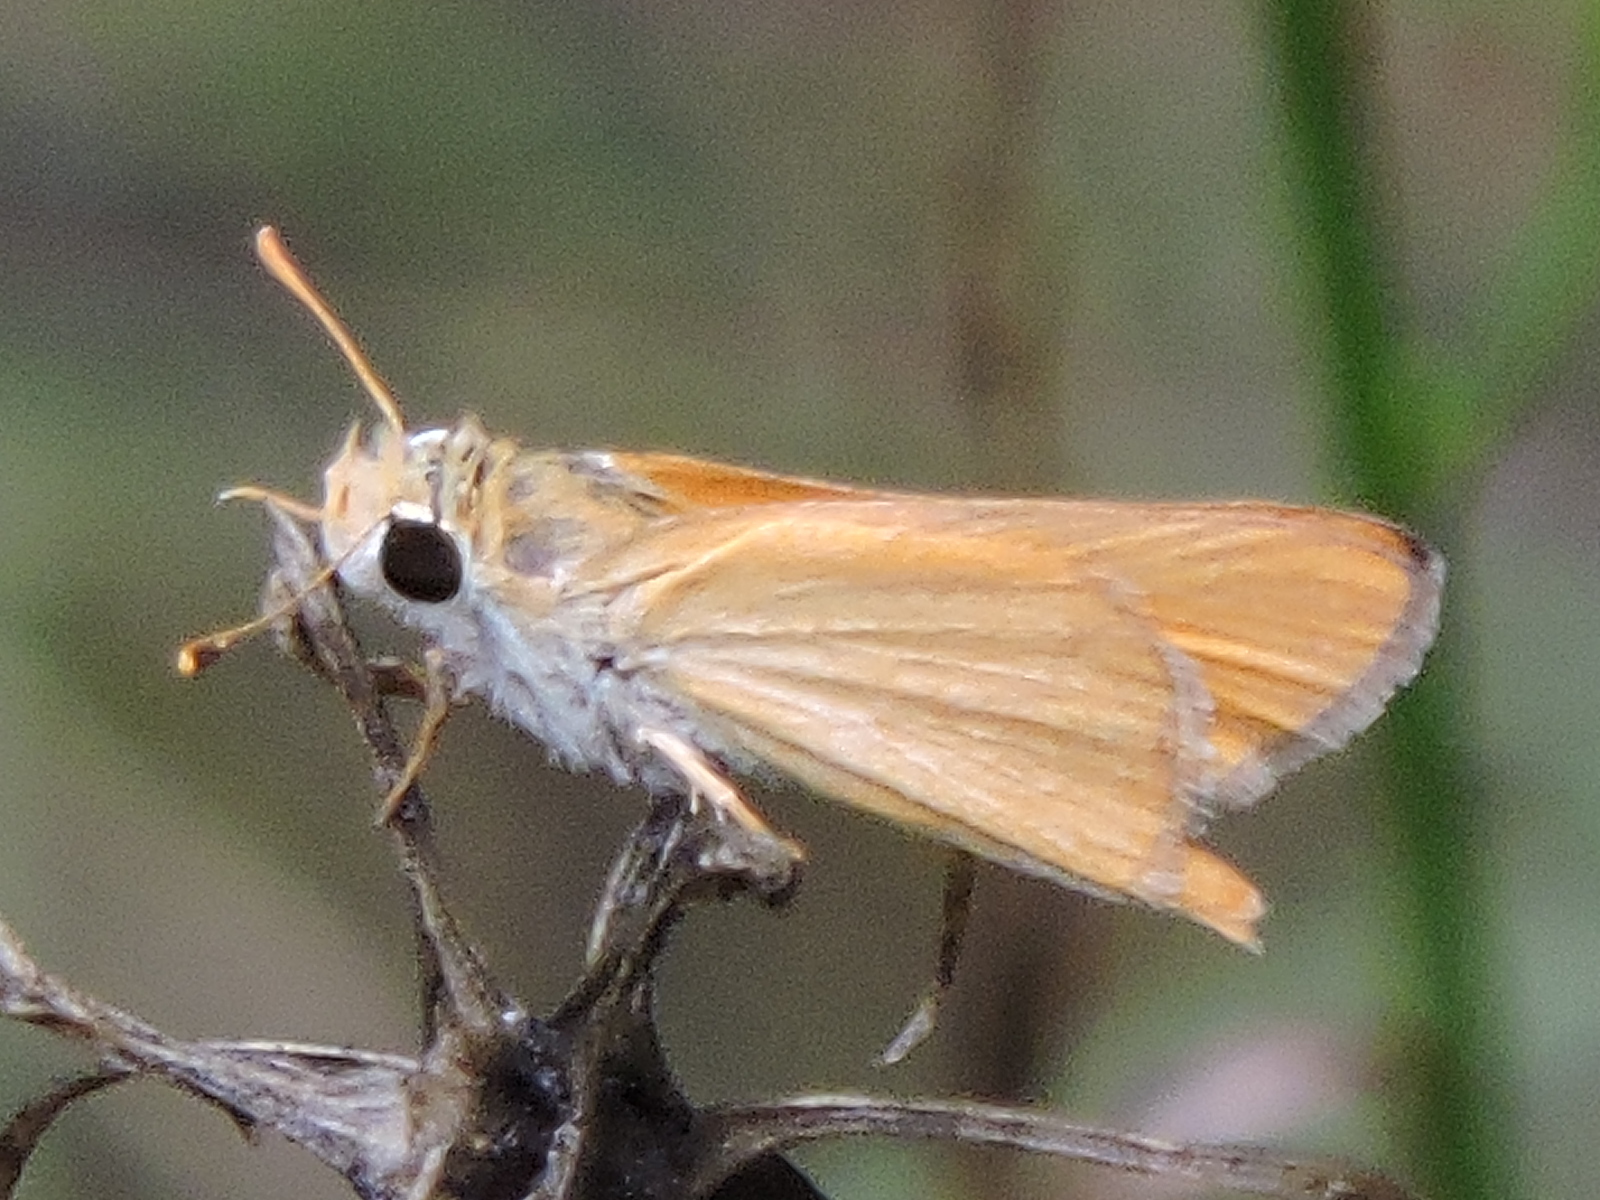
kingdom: Animalia
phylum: Arthropoda
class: Insecta
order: Lepidoptera
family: Hesperiidae
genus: Copaeodes
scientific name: Copaeodes aurantiaca
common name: Orange skipperling
